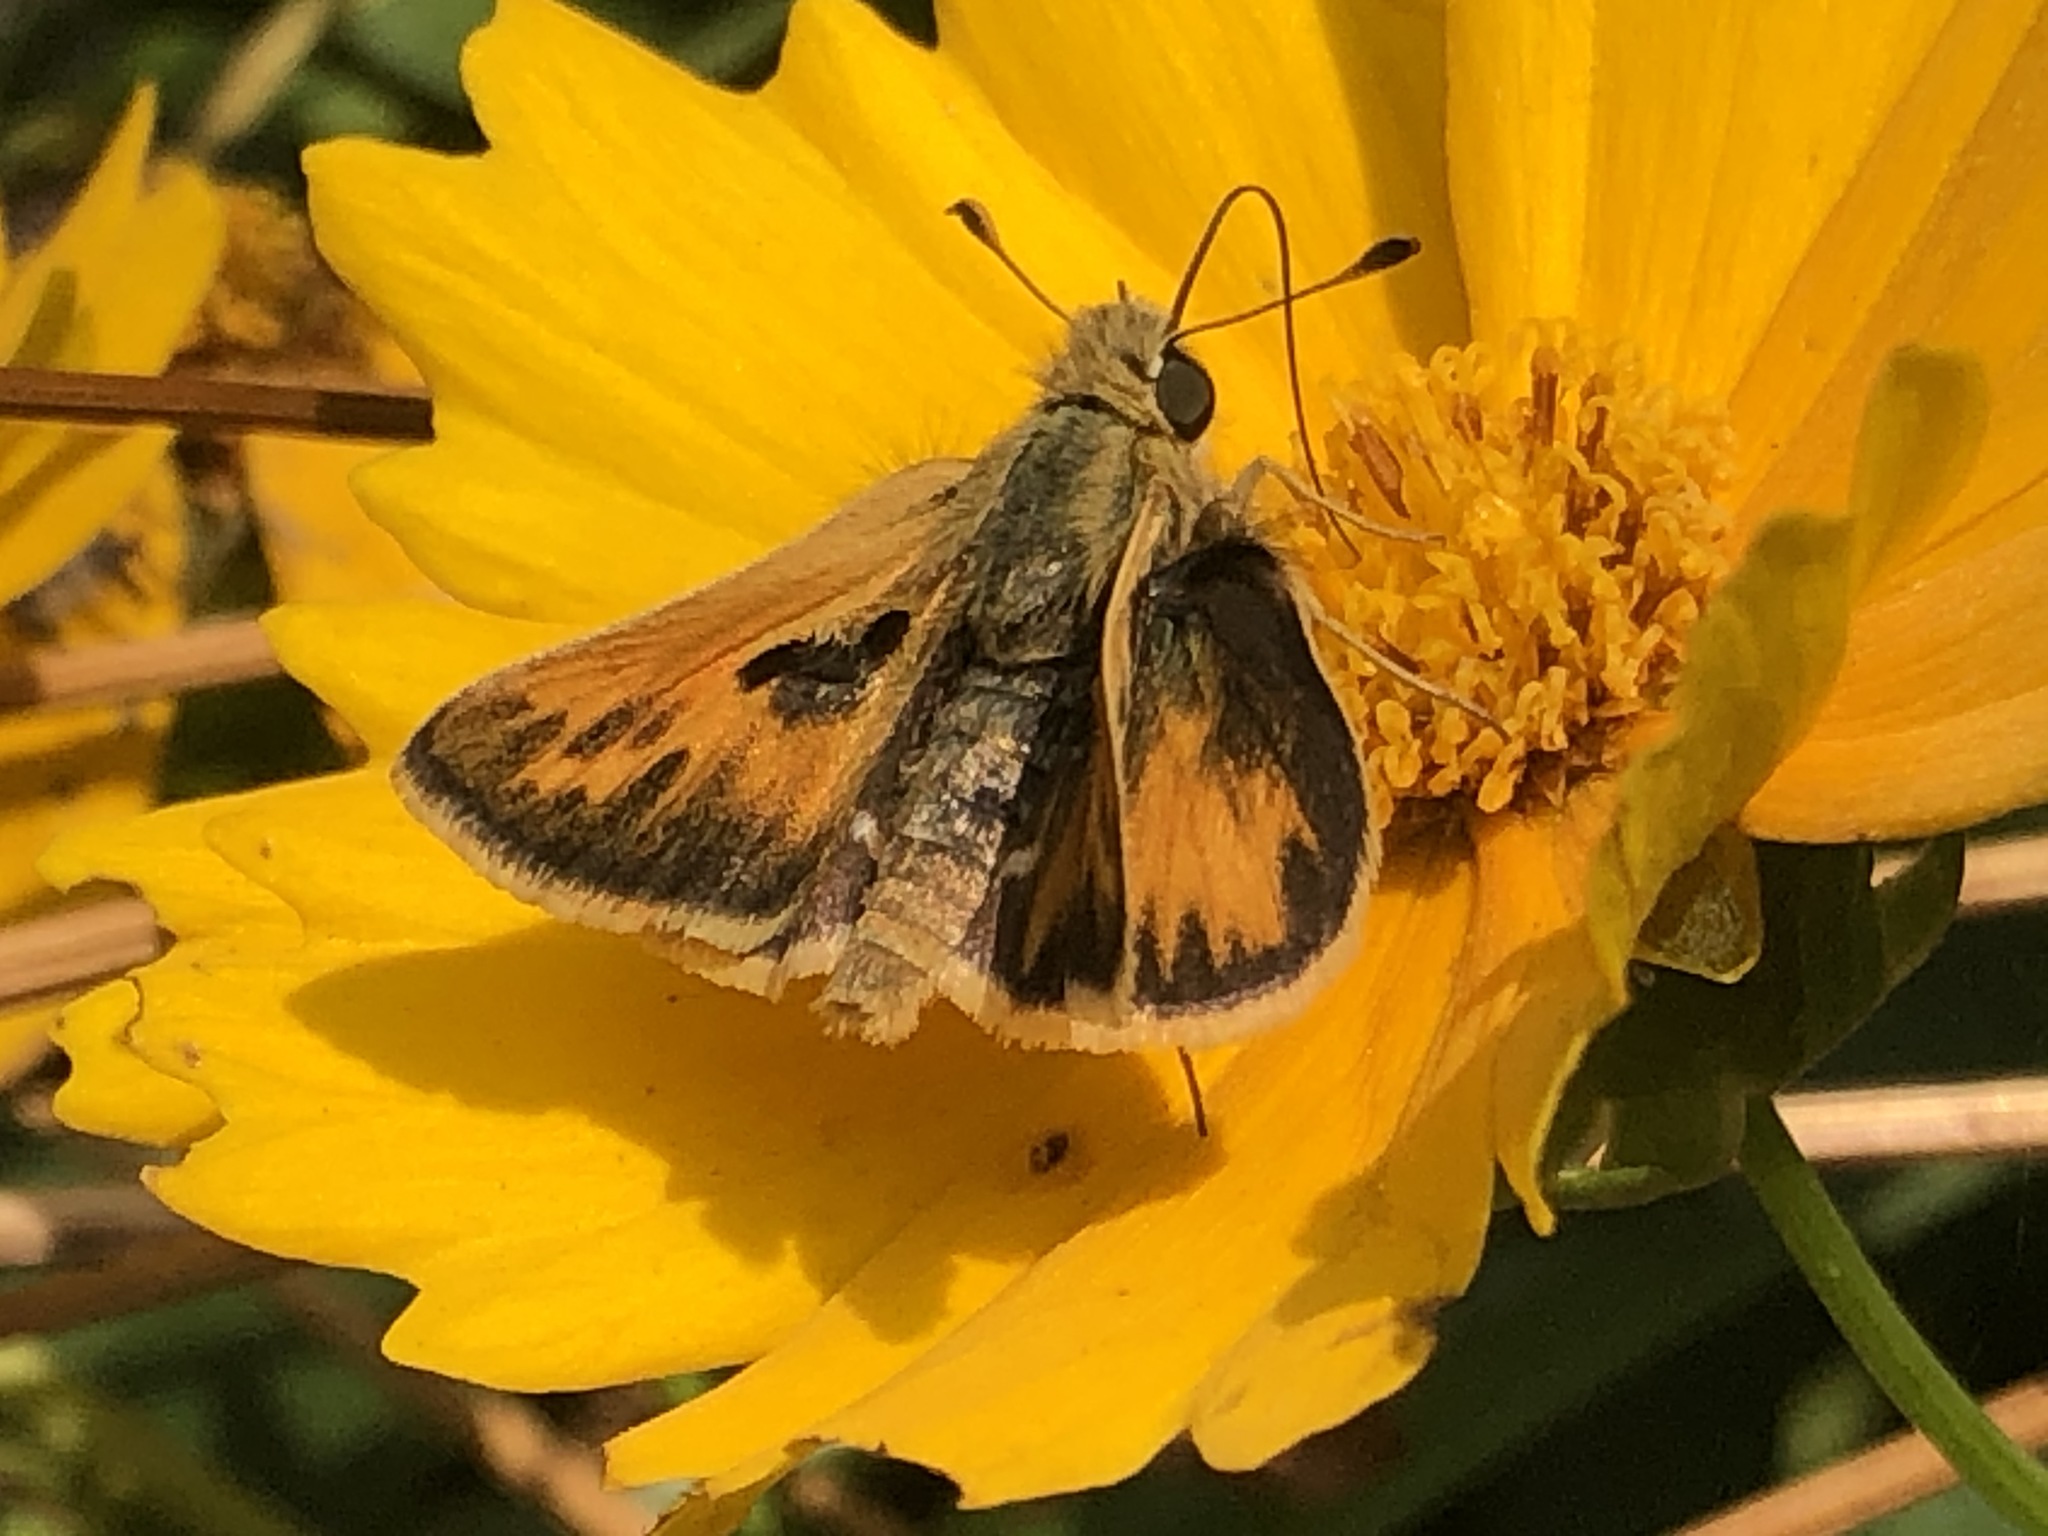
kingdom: Animalia
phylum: Arthropoda
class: Insecta
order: Lepidoptera
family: Hesperiidae
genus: Polites
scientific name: Polites sabuleti
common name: Sandhill skipper
